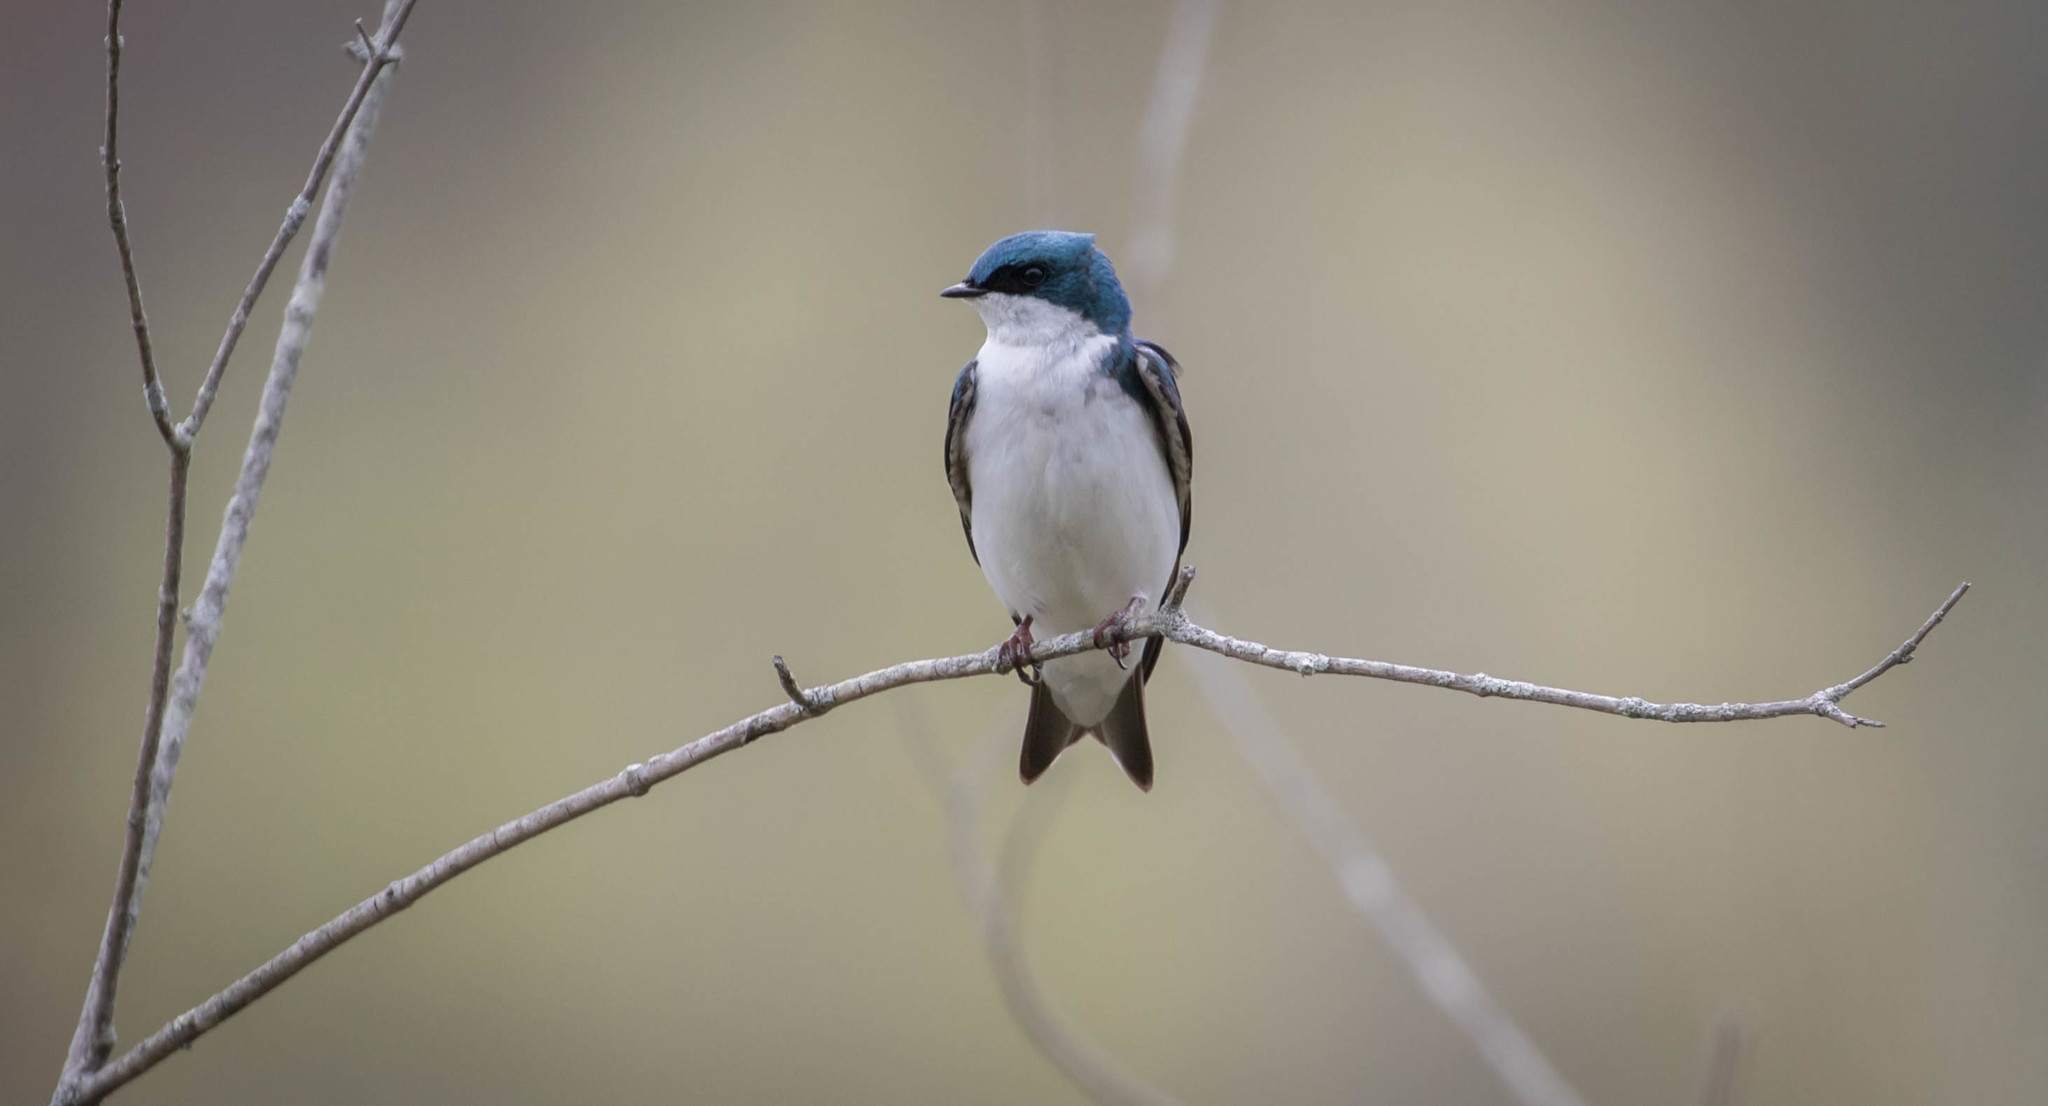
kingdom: Animalia
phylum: Chordata
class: Aves
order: Passeriformes
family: Hirundinidae
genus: Tachycineta
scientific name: Tachycineta bicolor
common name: Tree swallow
